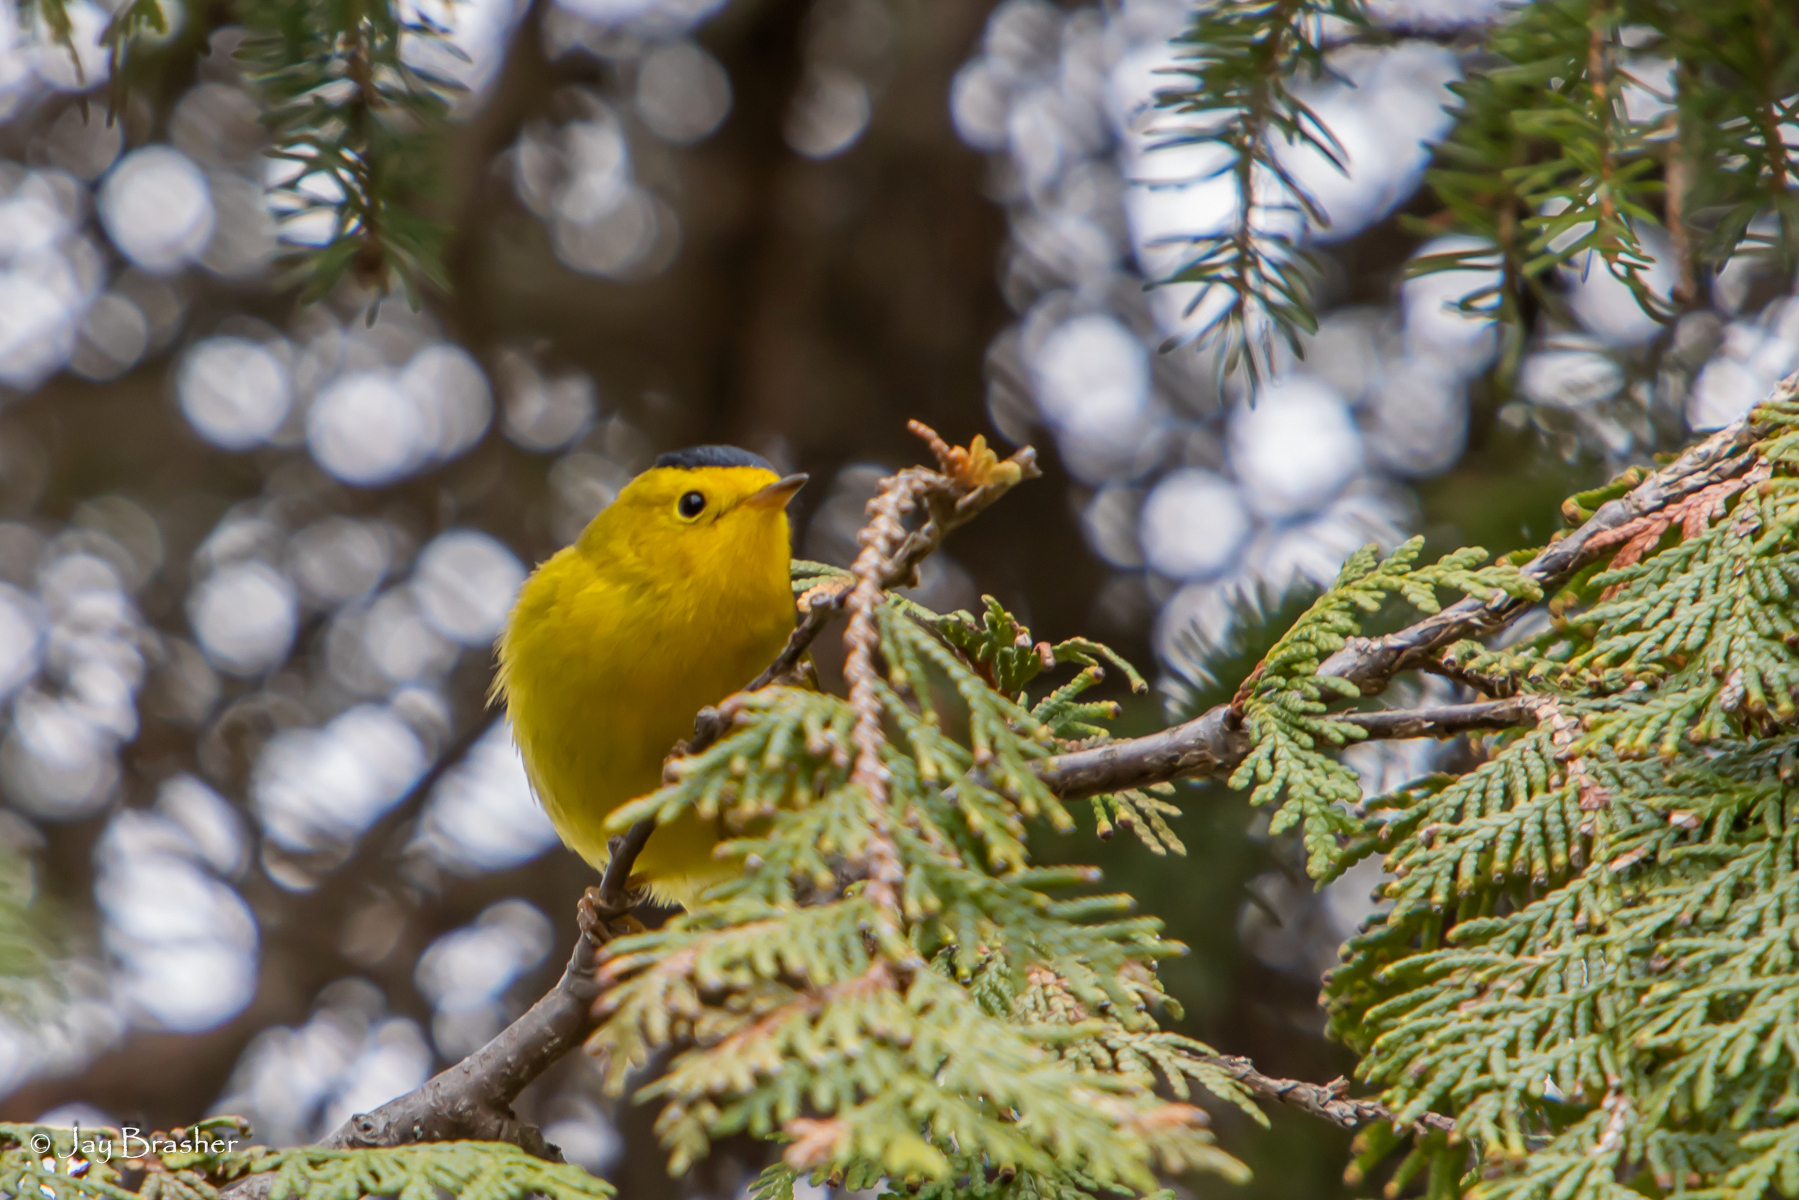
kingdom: Animalia
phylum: Chordata
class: Aves
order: Passeriformes
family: Parulidae
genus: Cardellina
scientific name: Cardellina pusilla
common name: Wilson's warbler
